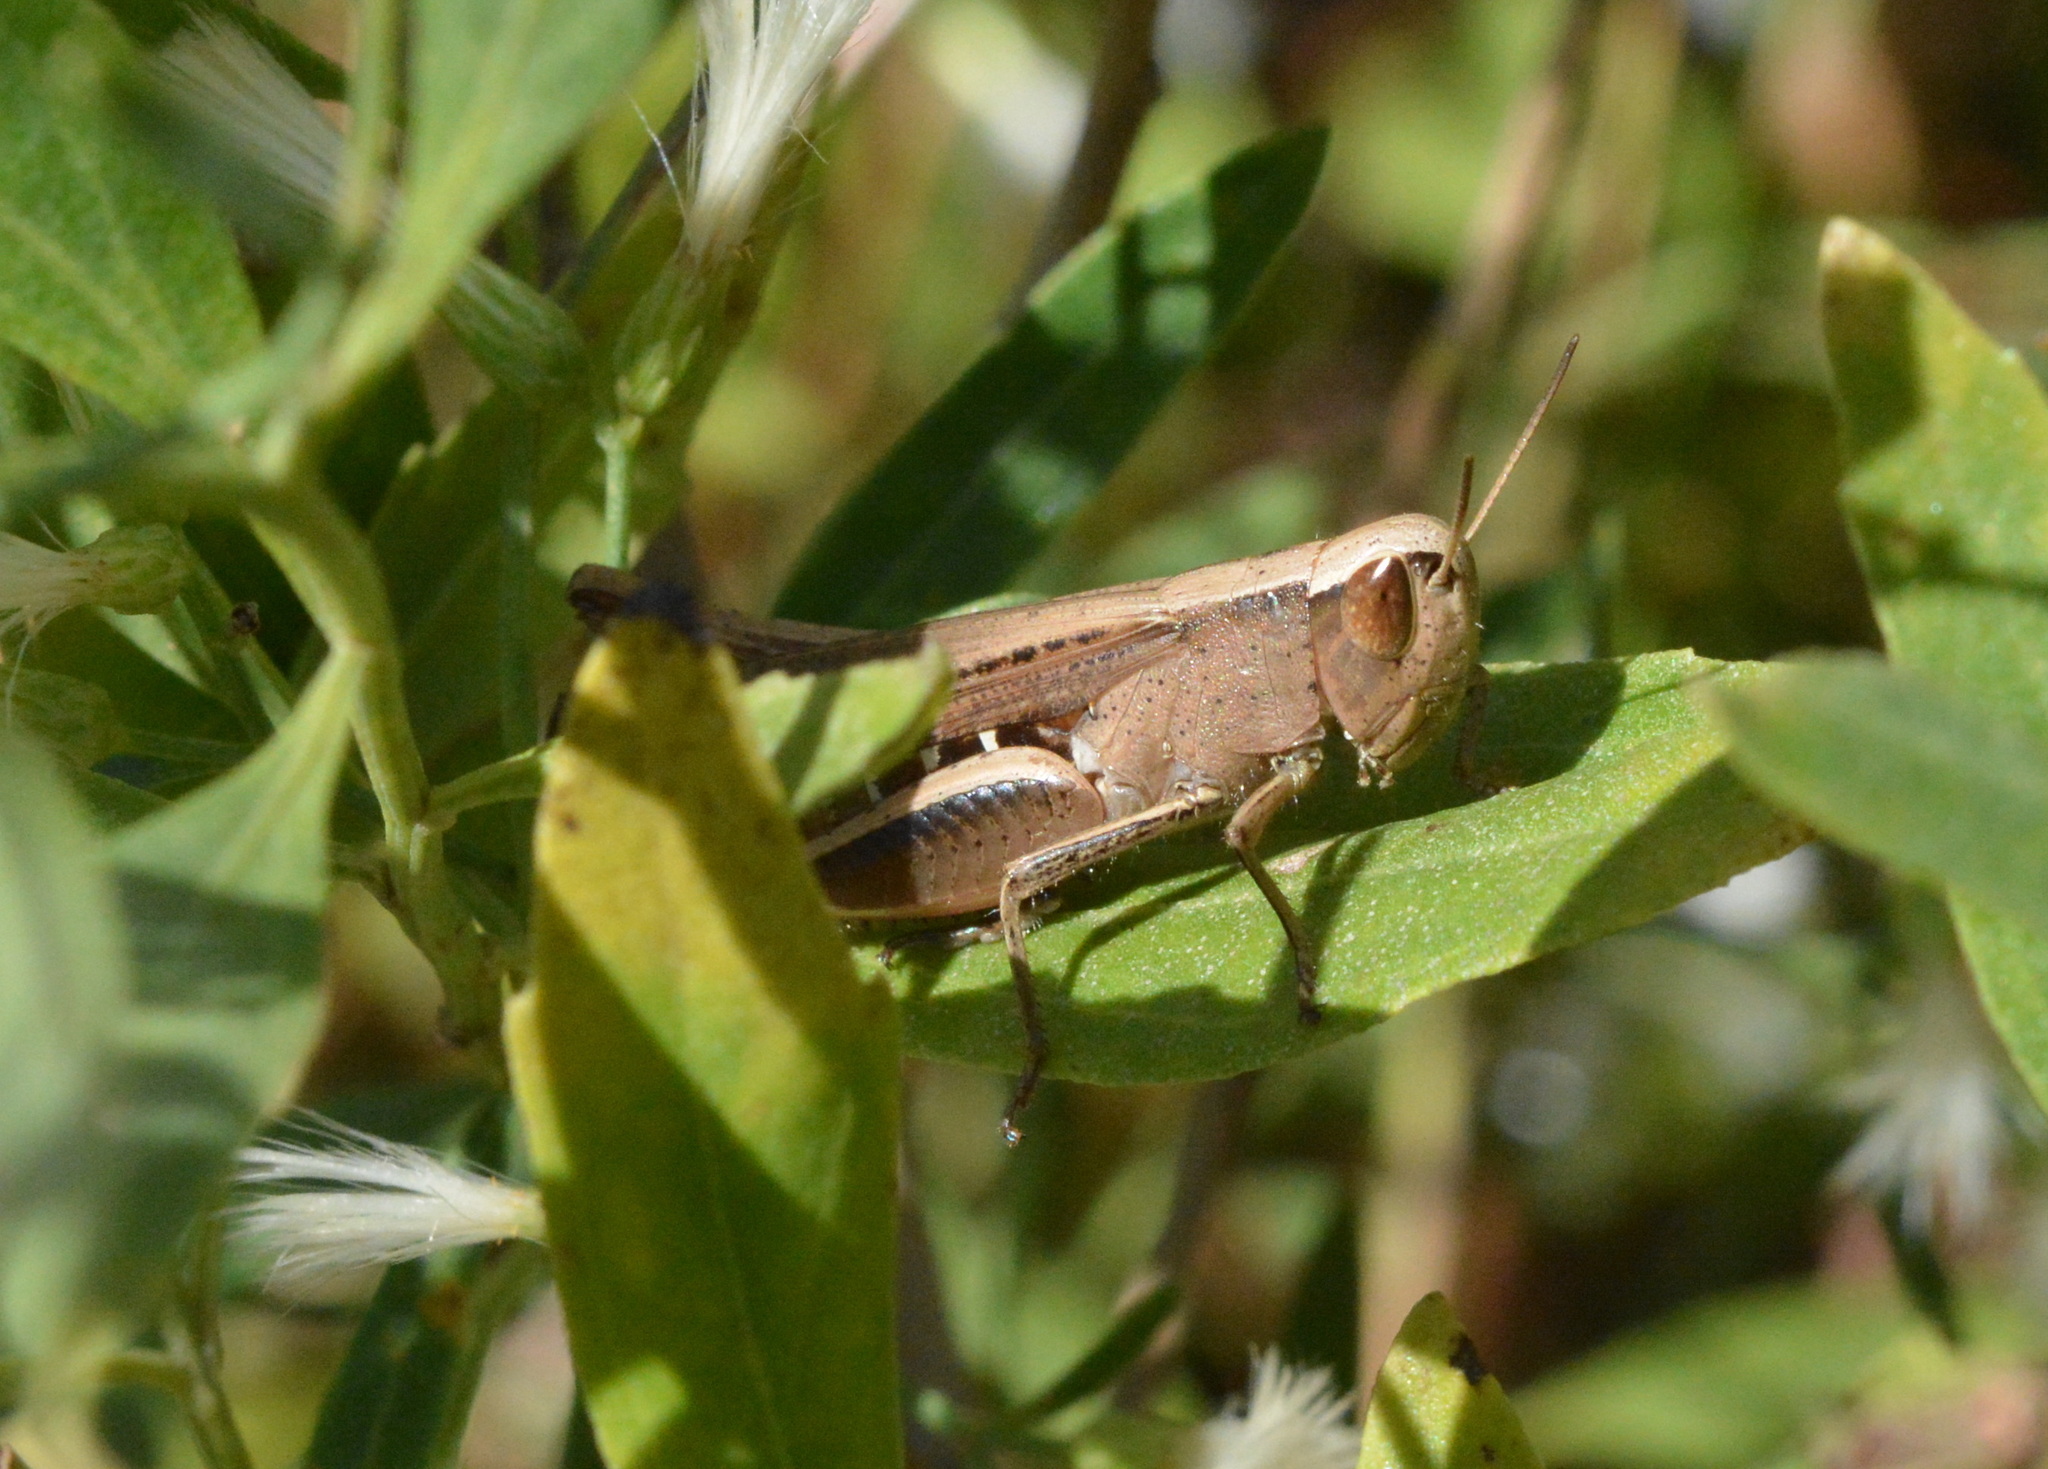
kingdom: Animalia
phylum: Arthropoda
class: Insecta
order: Orthoptera
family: Acrididae
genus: Amblytropidia
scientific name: Amblytropidia mysteca
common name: Brown winter grasshopper
